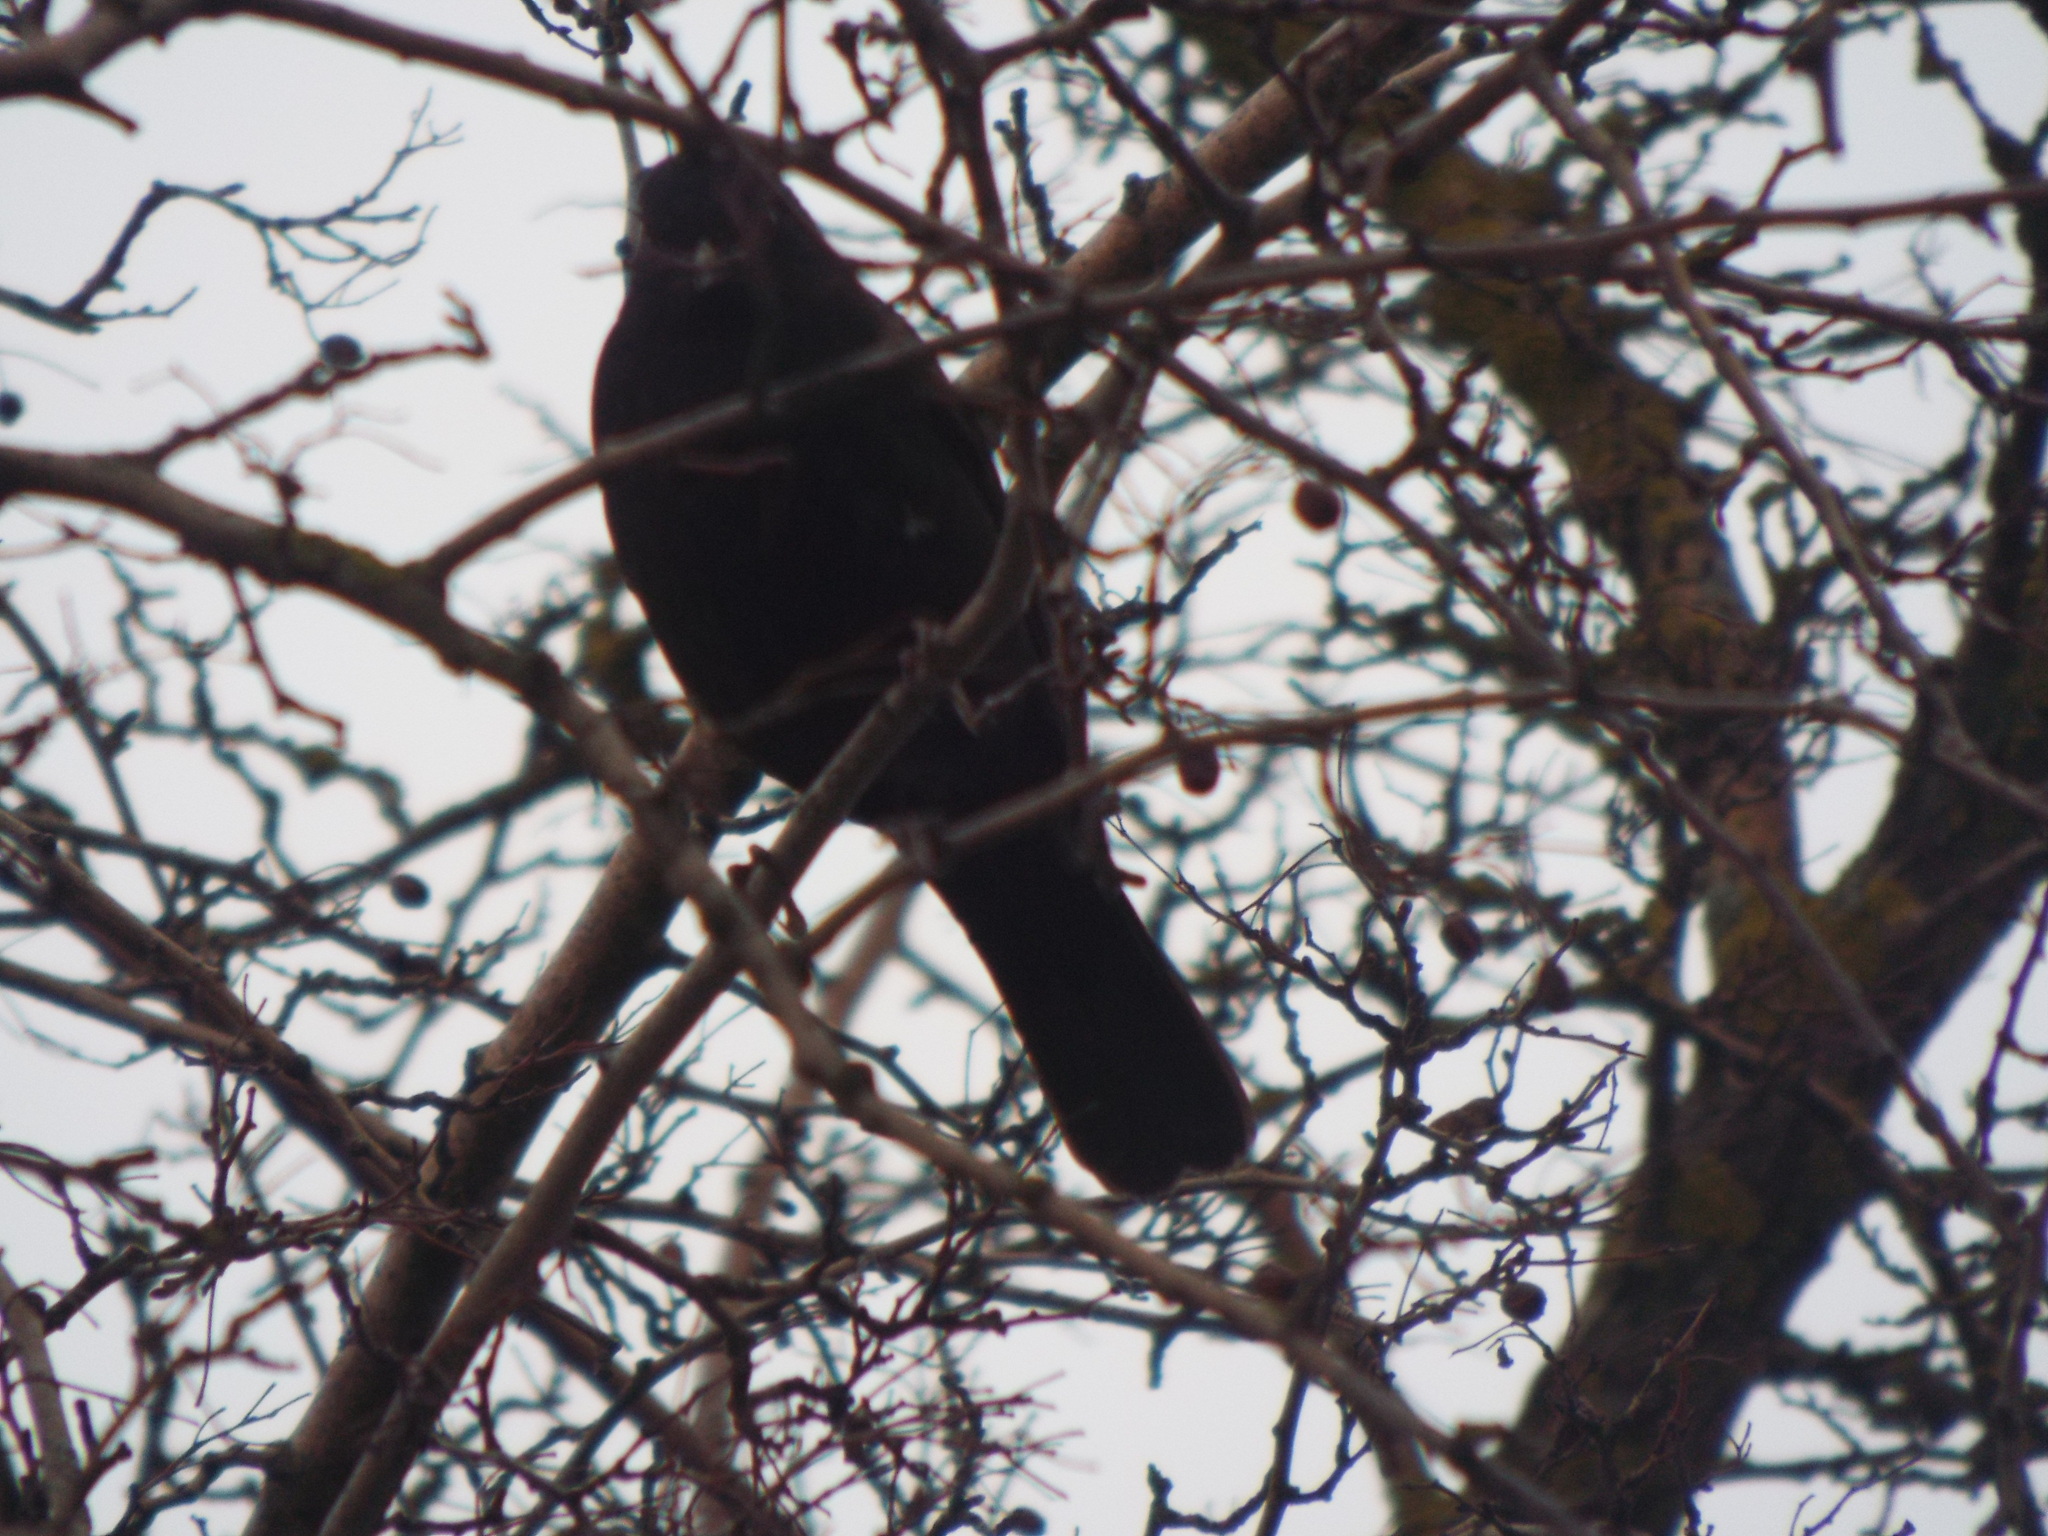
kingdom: Animalia
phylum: Chordata
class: Aves
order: Passeriformes
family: Turdidae
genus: Turdus
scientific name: Turdus merula
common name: Common blackbird
